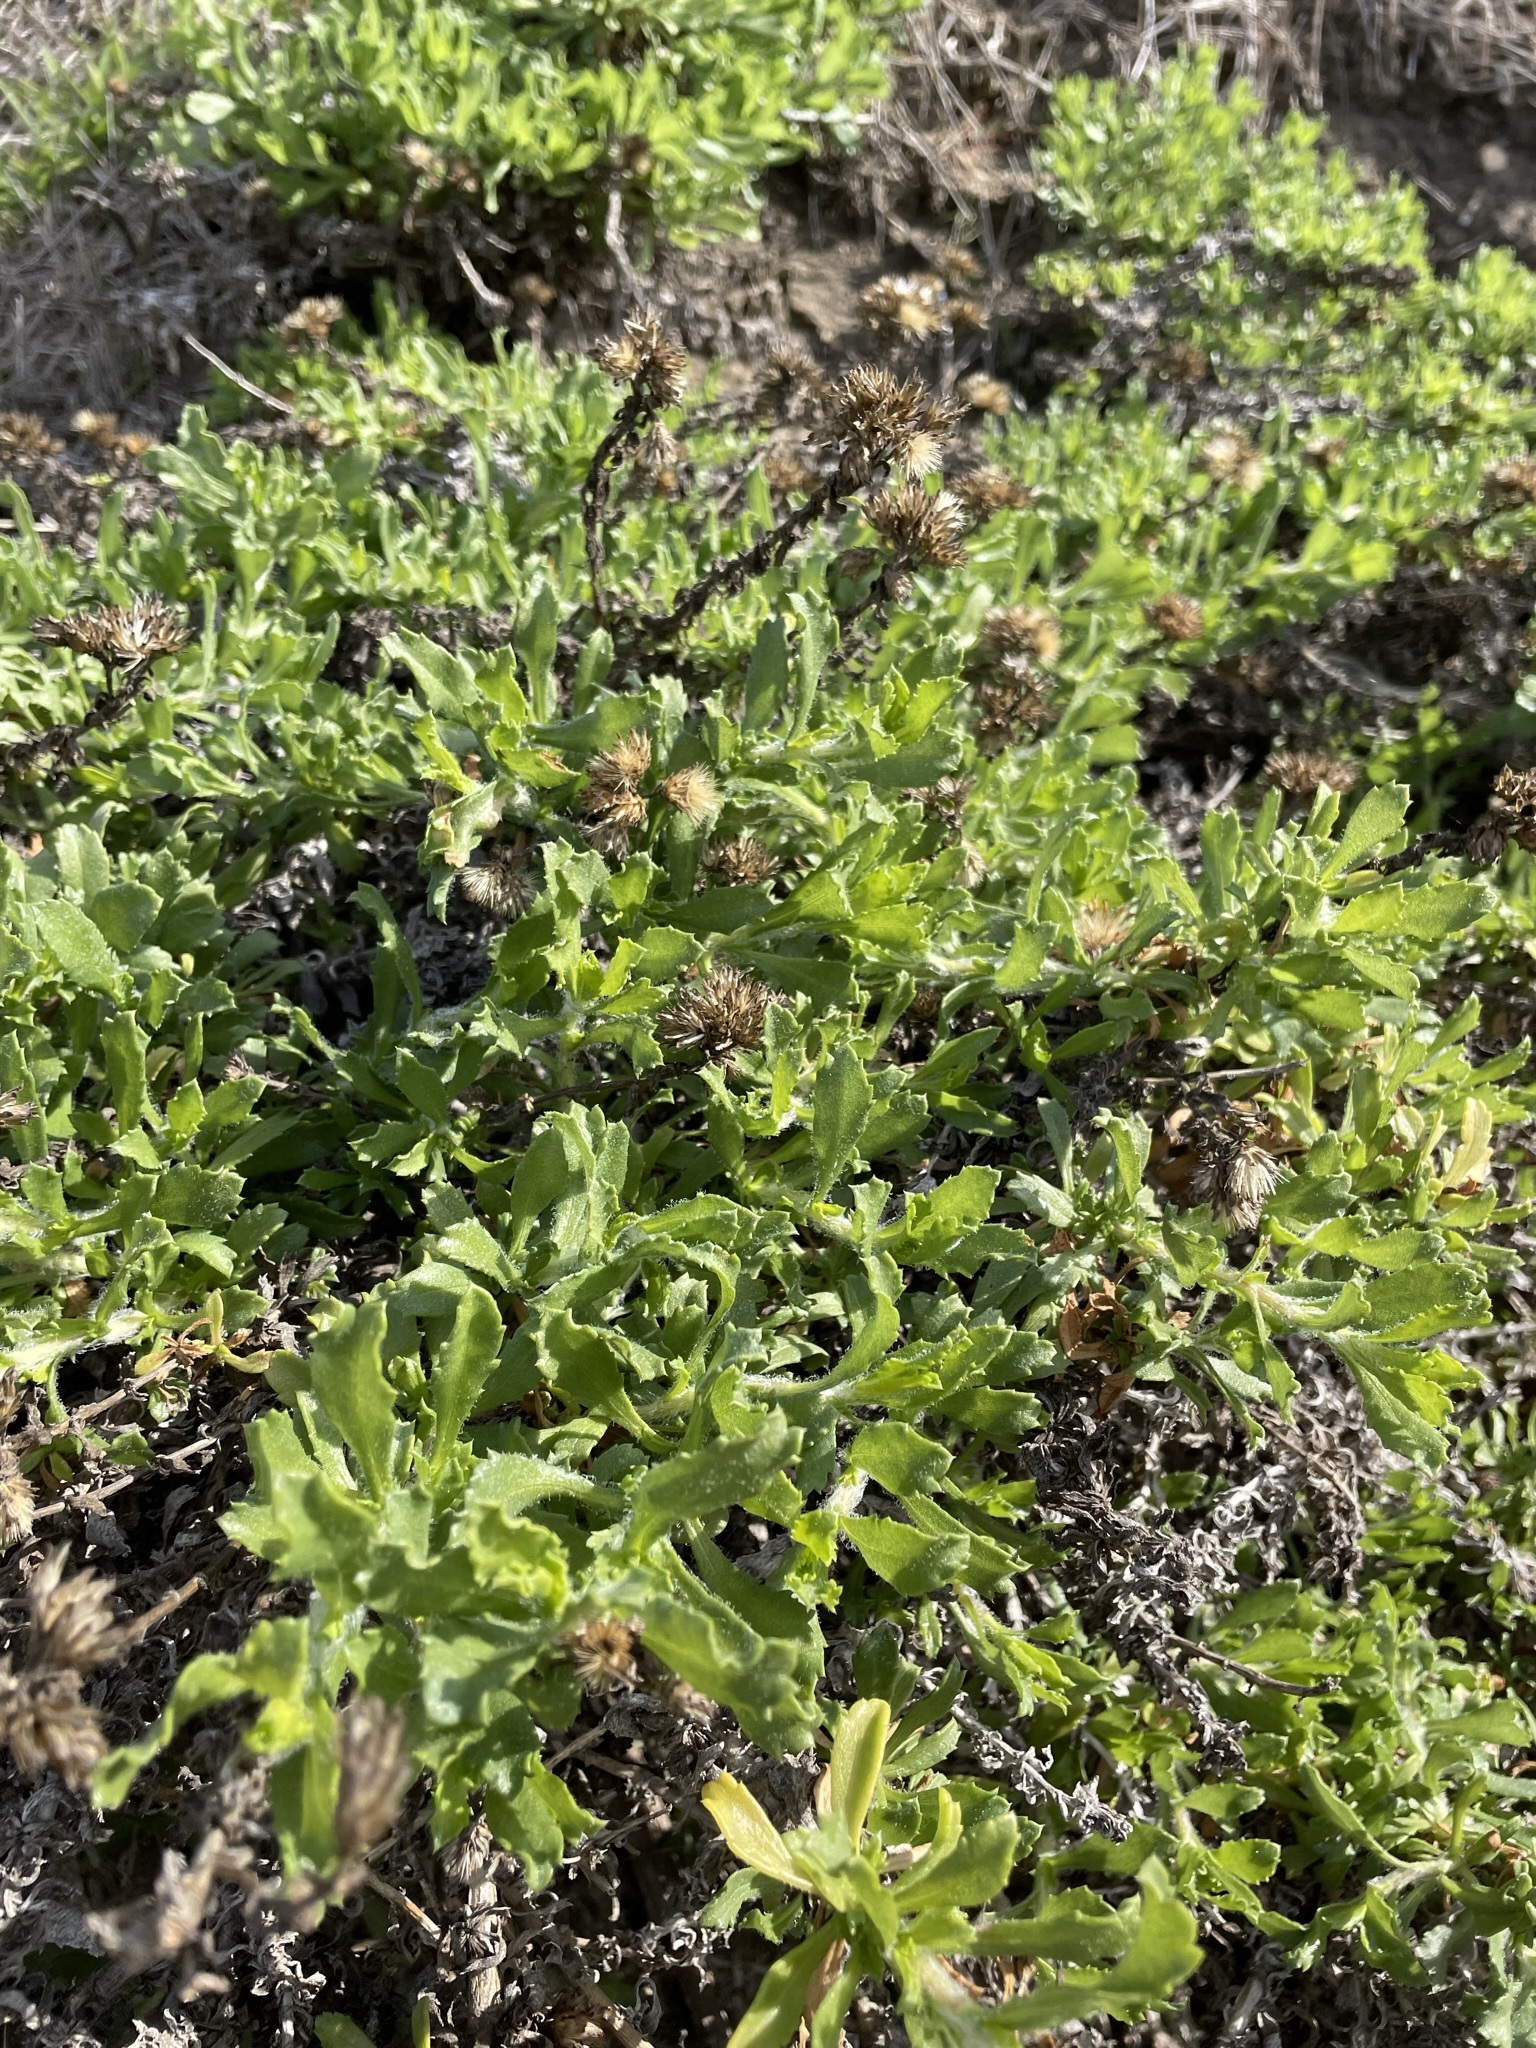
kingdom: Plantae
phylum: Tracheophyta
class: Magnoliopsida
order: Asterales
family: Asteraceae
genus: Isocoma
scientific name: Isocoma menziesii
